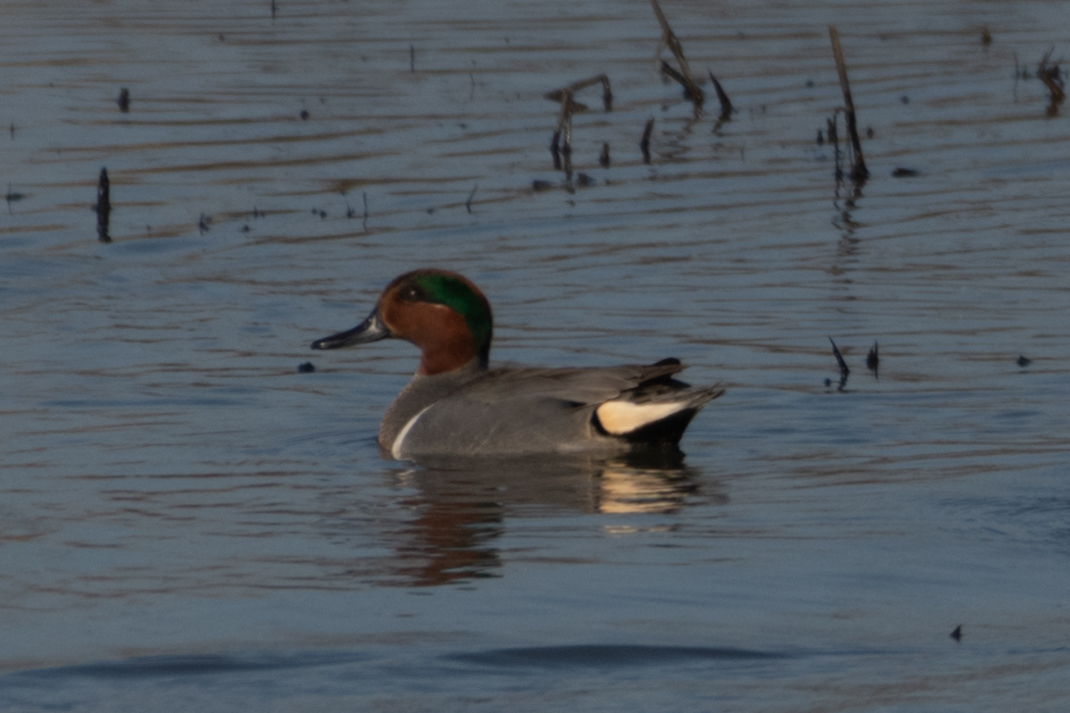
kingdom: Animalia
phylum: Chordata
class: Aves
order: Anseriformes
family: Anatidae
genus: Anas
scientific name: Anas crecca
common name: Eurasian teal
